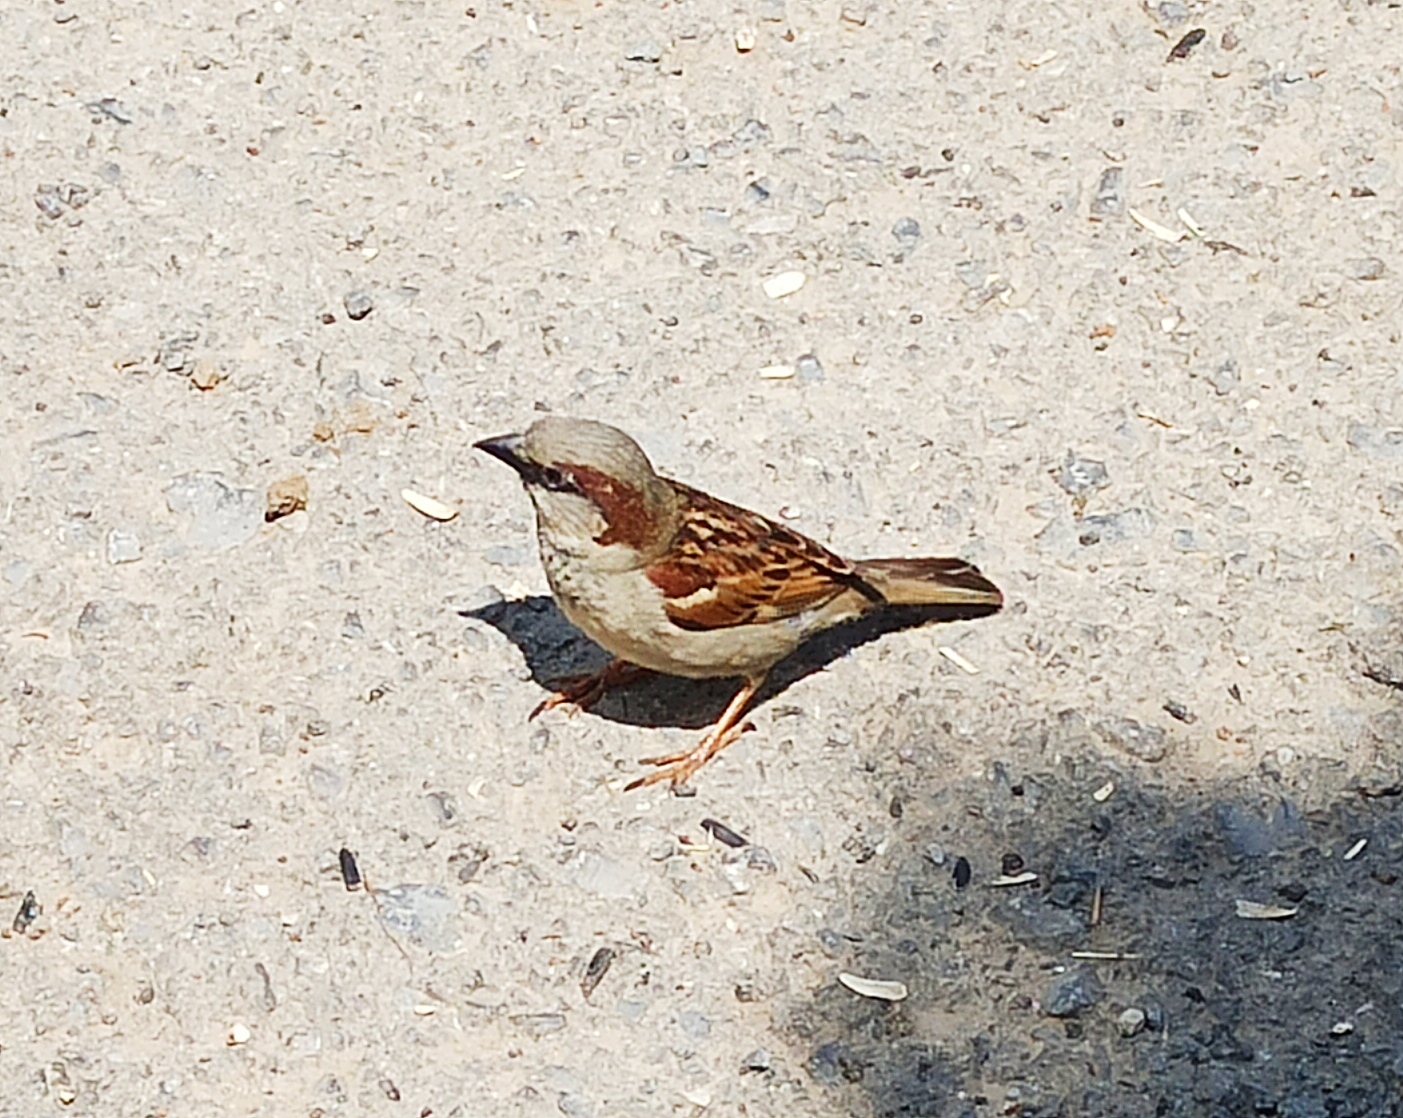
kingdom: Animalia
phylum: Chordata
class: Aves
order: Passeriformes
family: Passeridae
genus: Passer
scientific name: Passer domesticus
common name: House sparrow
